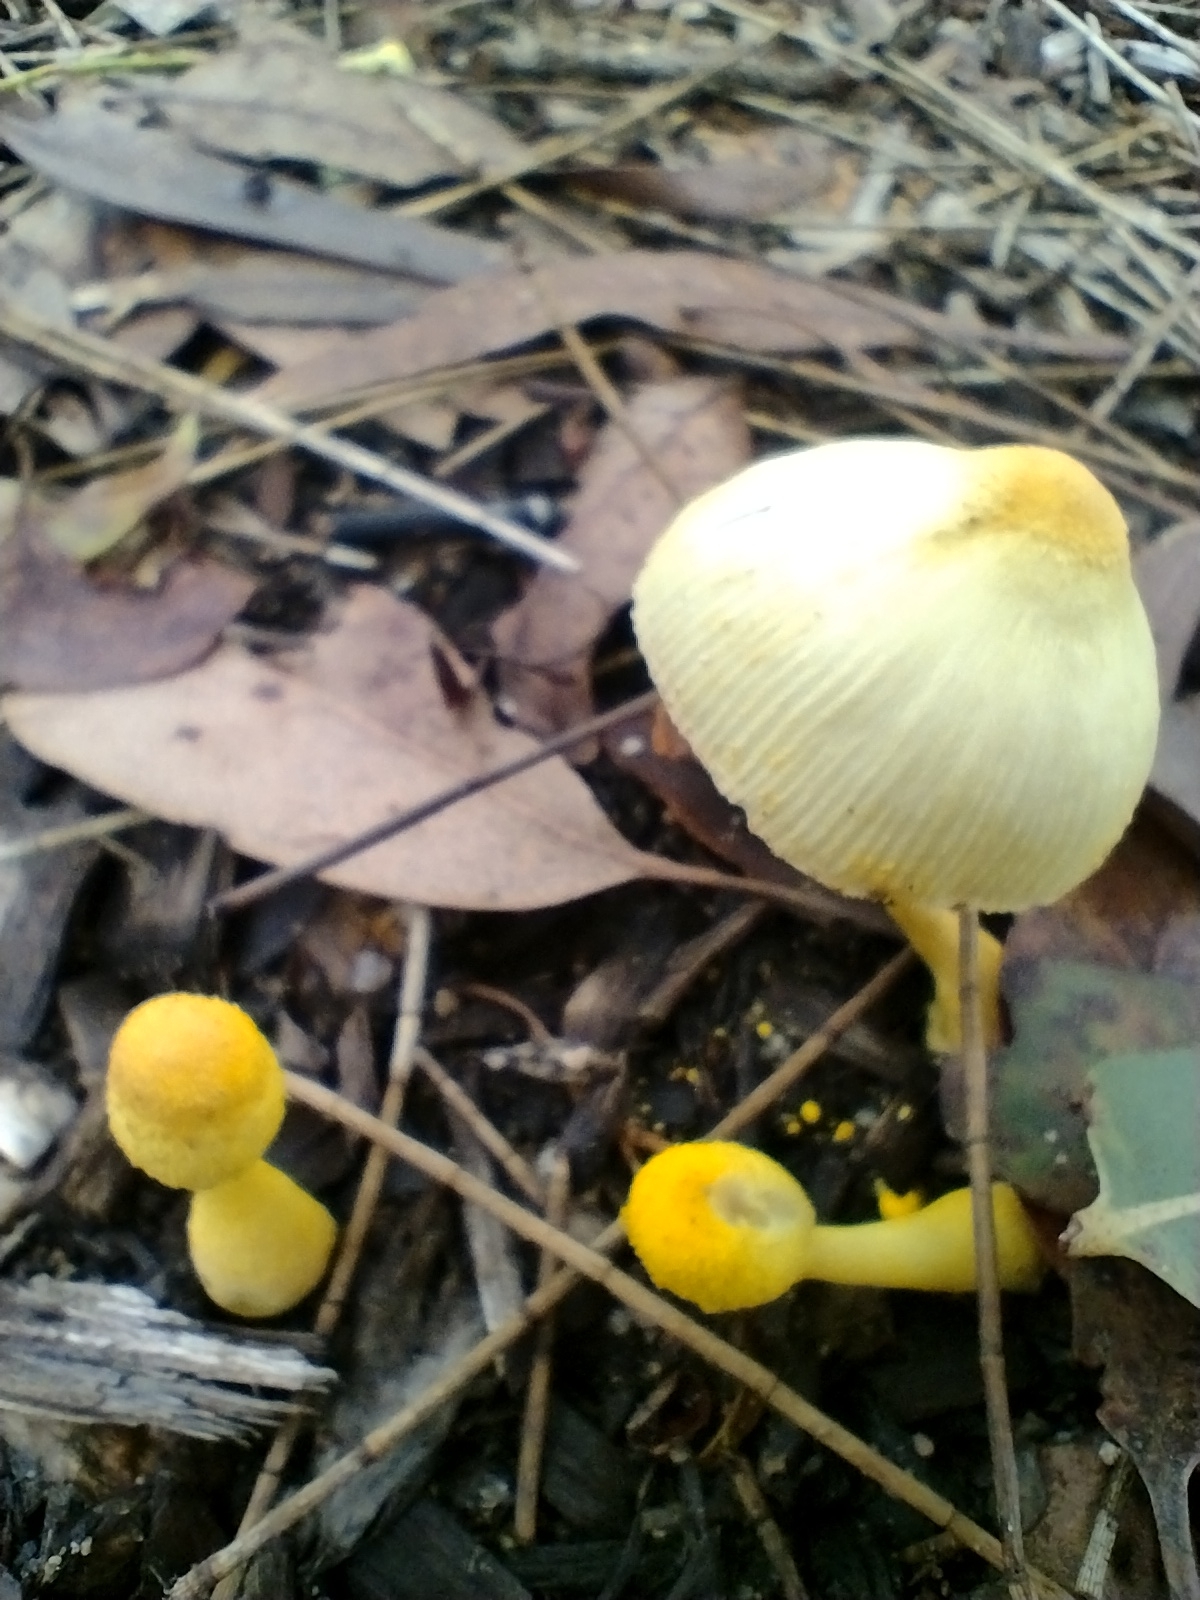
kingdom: Fungi
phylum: Basidiomycota
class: Agaricomycetes
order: Agaricales
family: Agaricaceae
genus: Leucocoprinus
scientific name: Leucocoprinus birnbaumii
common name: Plantpot dapperling
